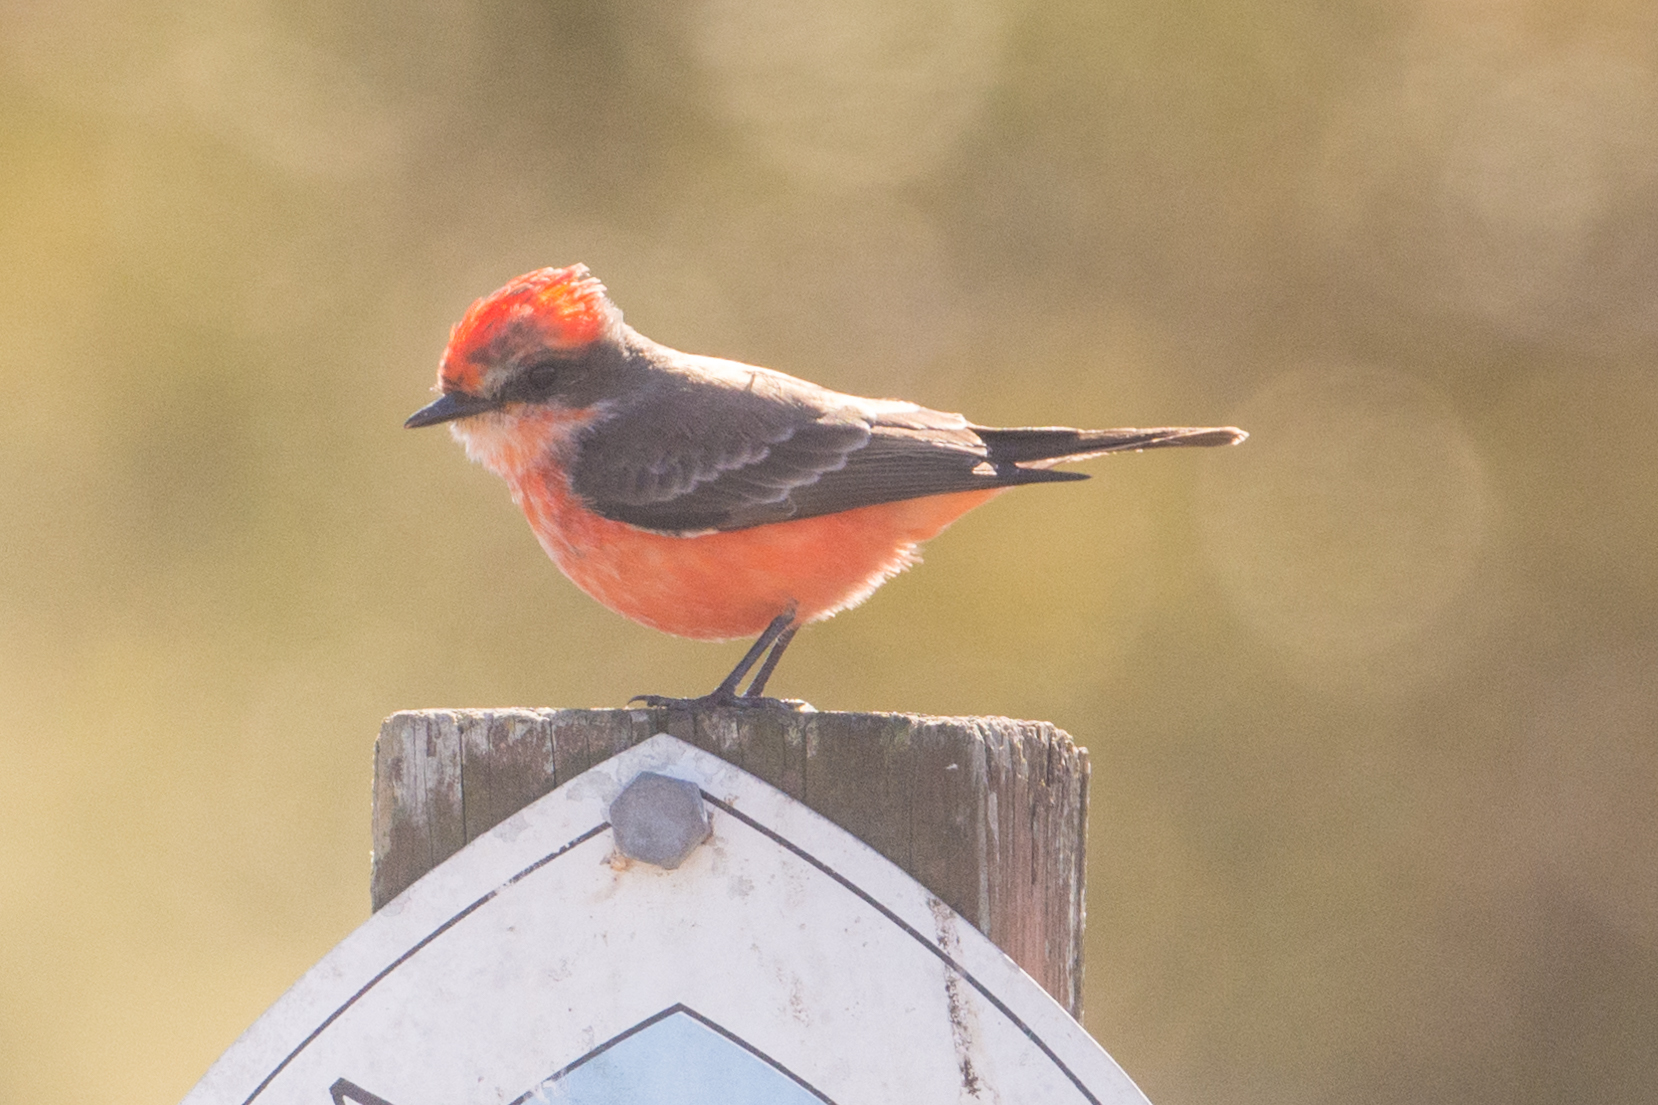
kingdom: Animalia
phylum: Chordata
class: Aves
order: Passeriformes
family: Tyrannidae
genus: Pyrocephalus
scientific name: Pyrocephalus rubinus
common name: Vermilion flycatcher
